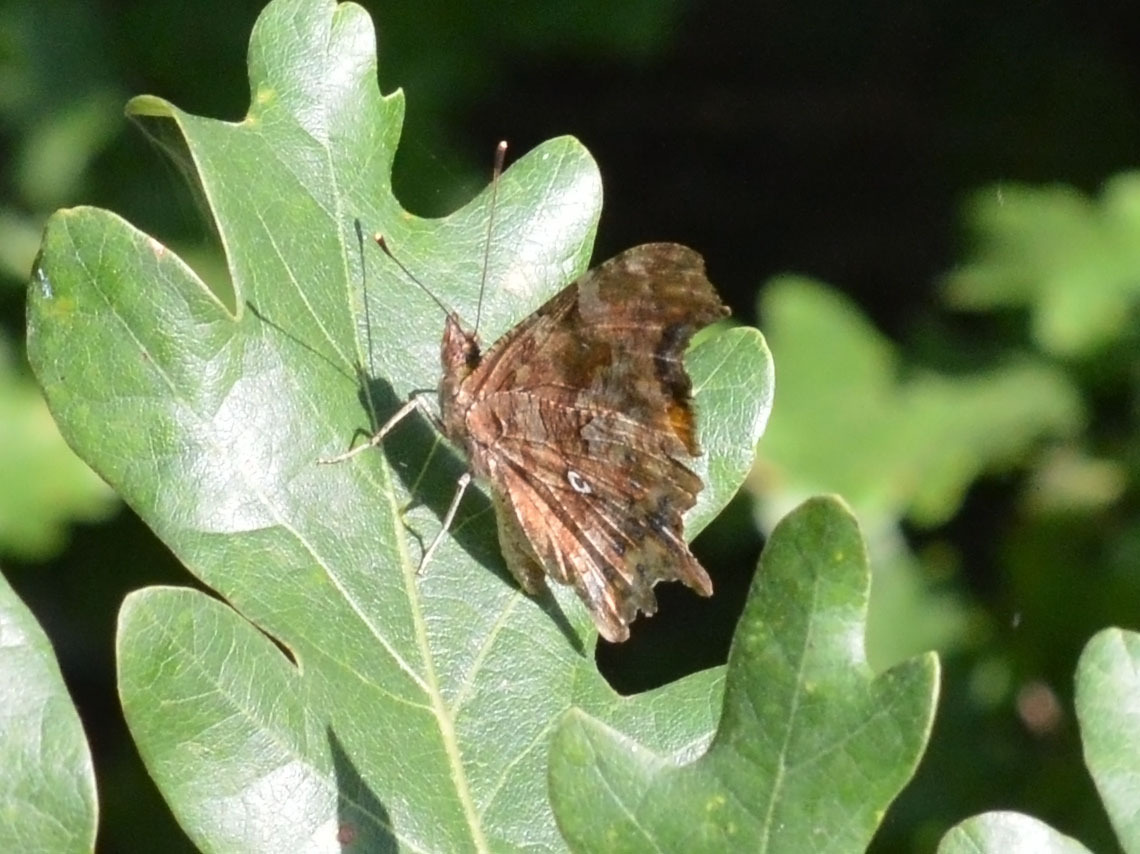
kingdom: Animalia
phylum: Arthropoda
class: Insecta
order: Lepidoptera
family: Nymphalidae
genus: Polygonia
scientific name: Polygonia c-album
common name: Comma
